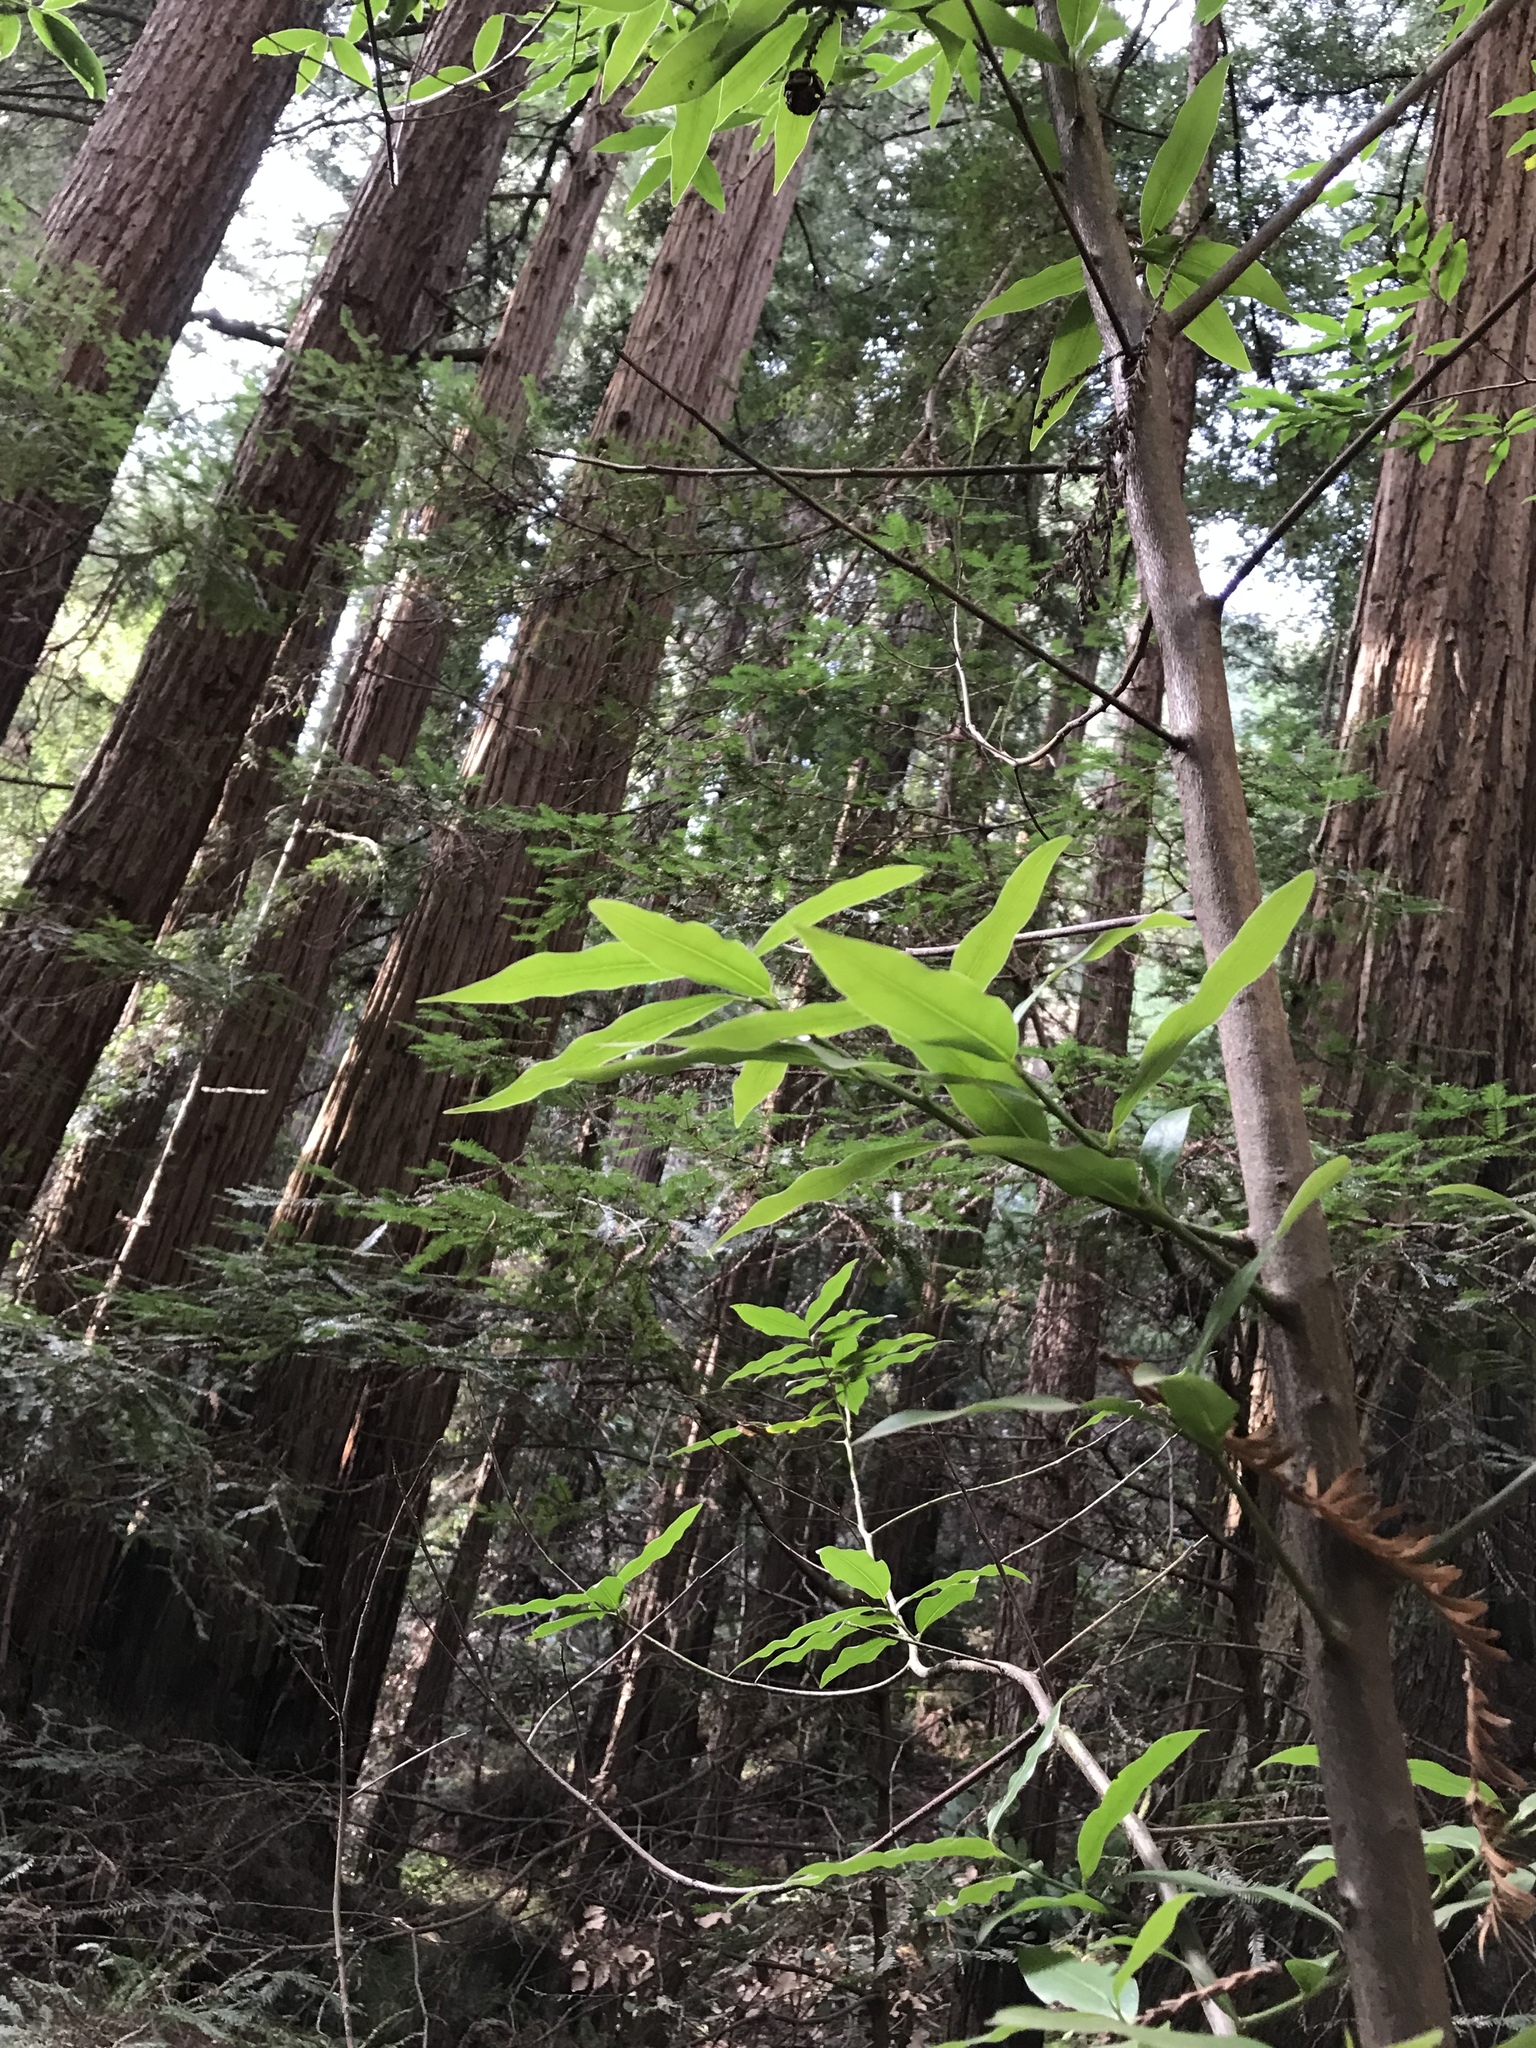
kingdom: Plantae
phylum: Tracheophyta
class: Magnoliopsida
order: Laurales
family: Lauraceae
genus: Umbellularia
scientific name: Umbellularia californica
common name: California bay
